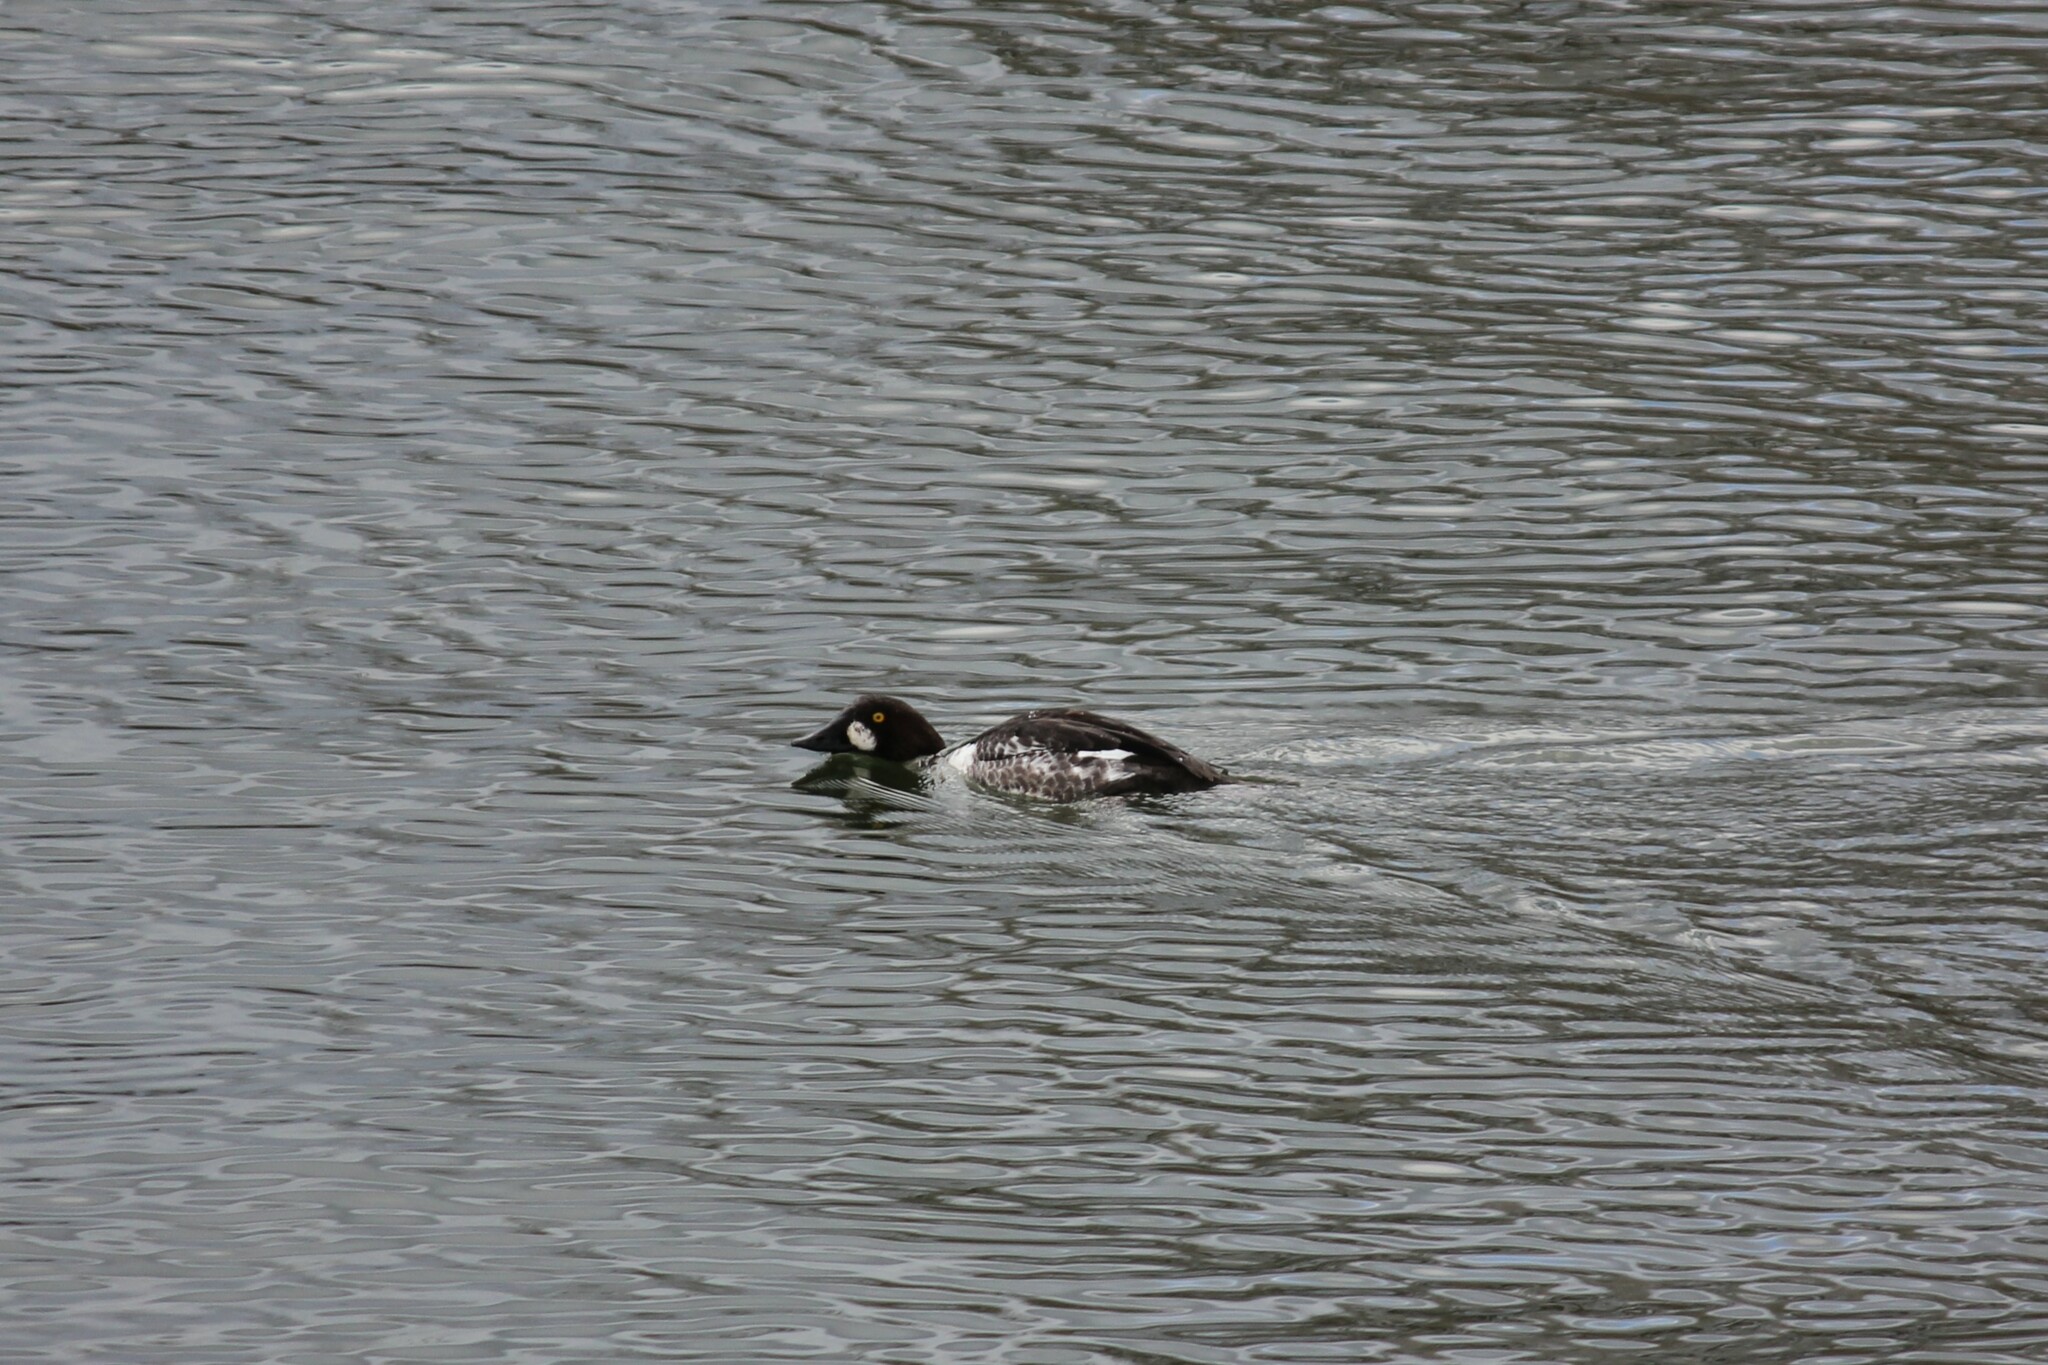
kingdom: Animalia
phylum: Chordata
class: Aves
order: Anseriformes
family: Anatidae
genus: Bucephala
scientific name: Bucephala clangula
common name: Common goldeneye
